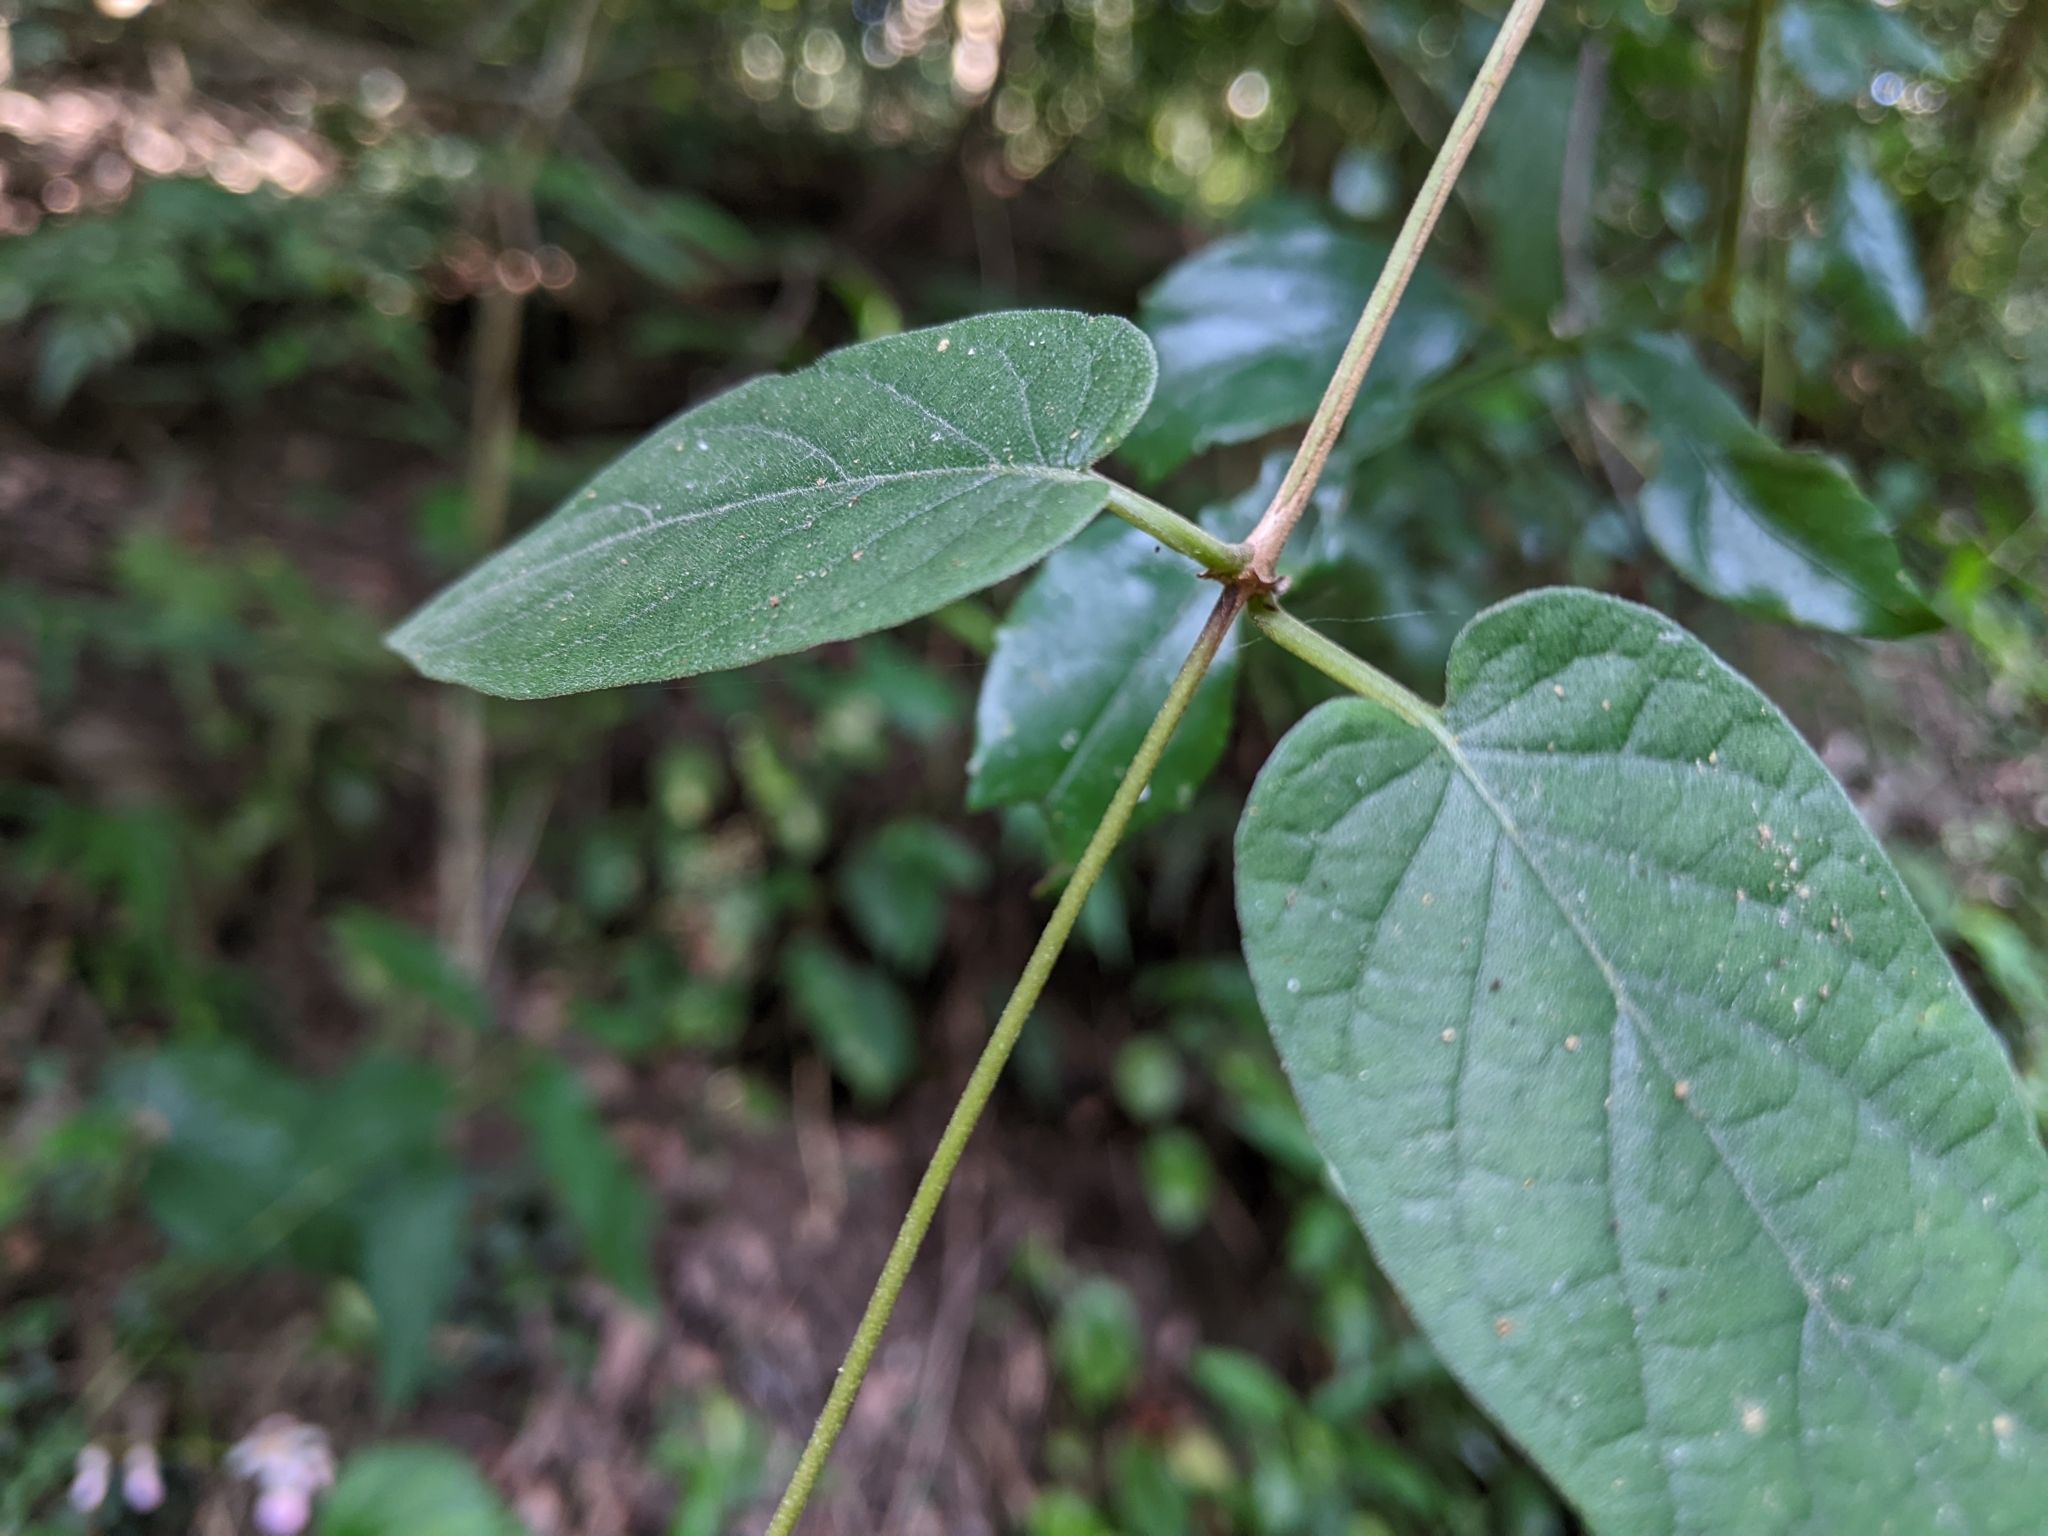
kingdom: Plantae
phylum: Tracheophyta
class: Magnoliopsida
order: Gentianales
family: Rubiaceae
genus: Paederia
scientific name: Paederia cavaleriei
